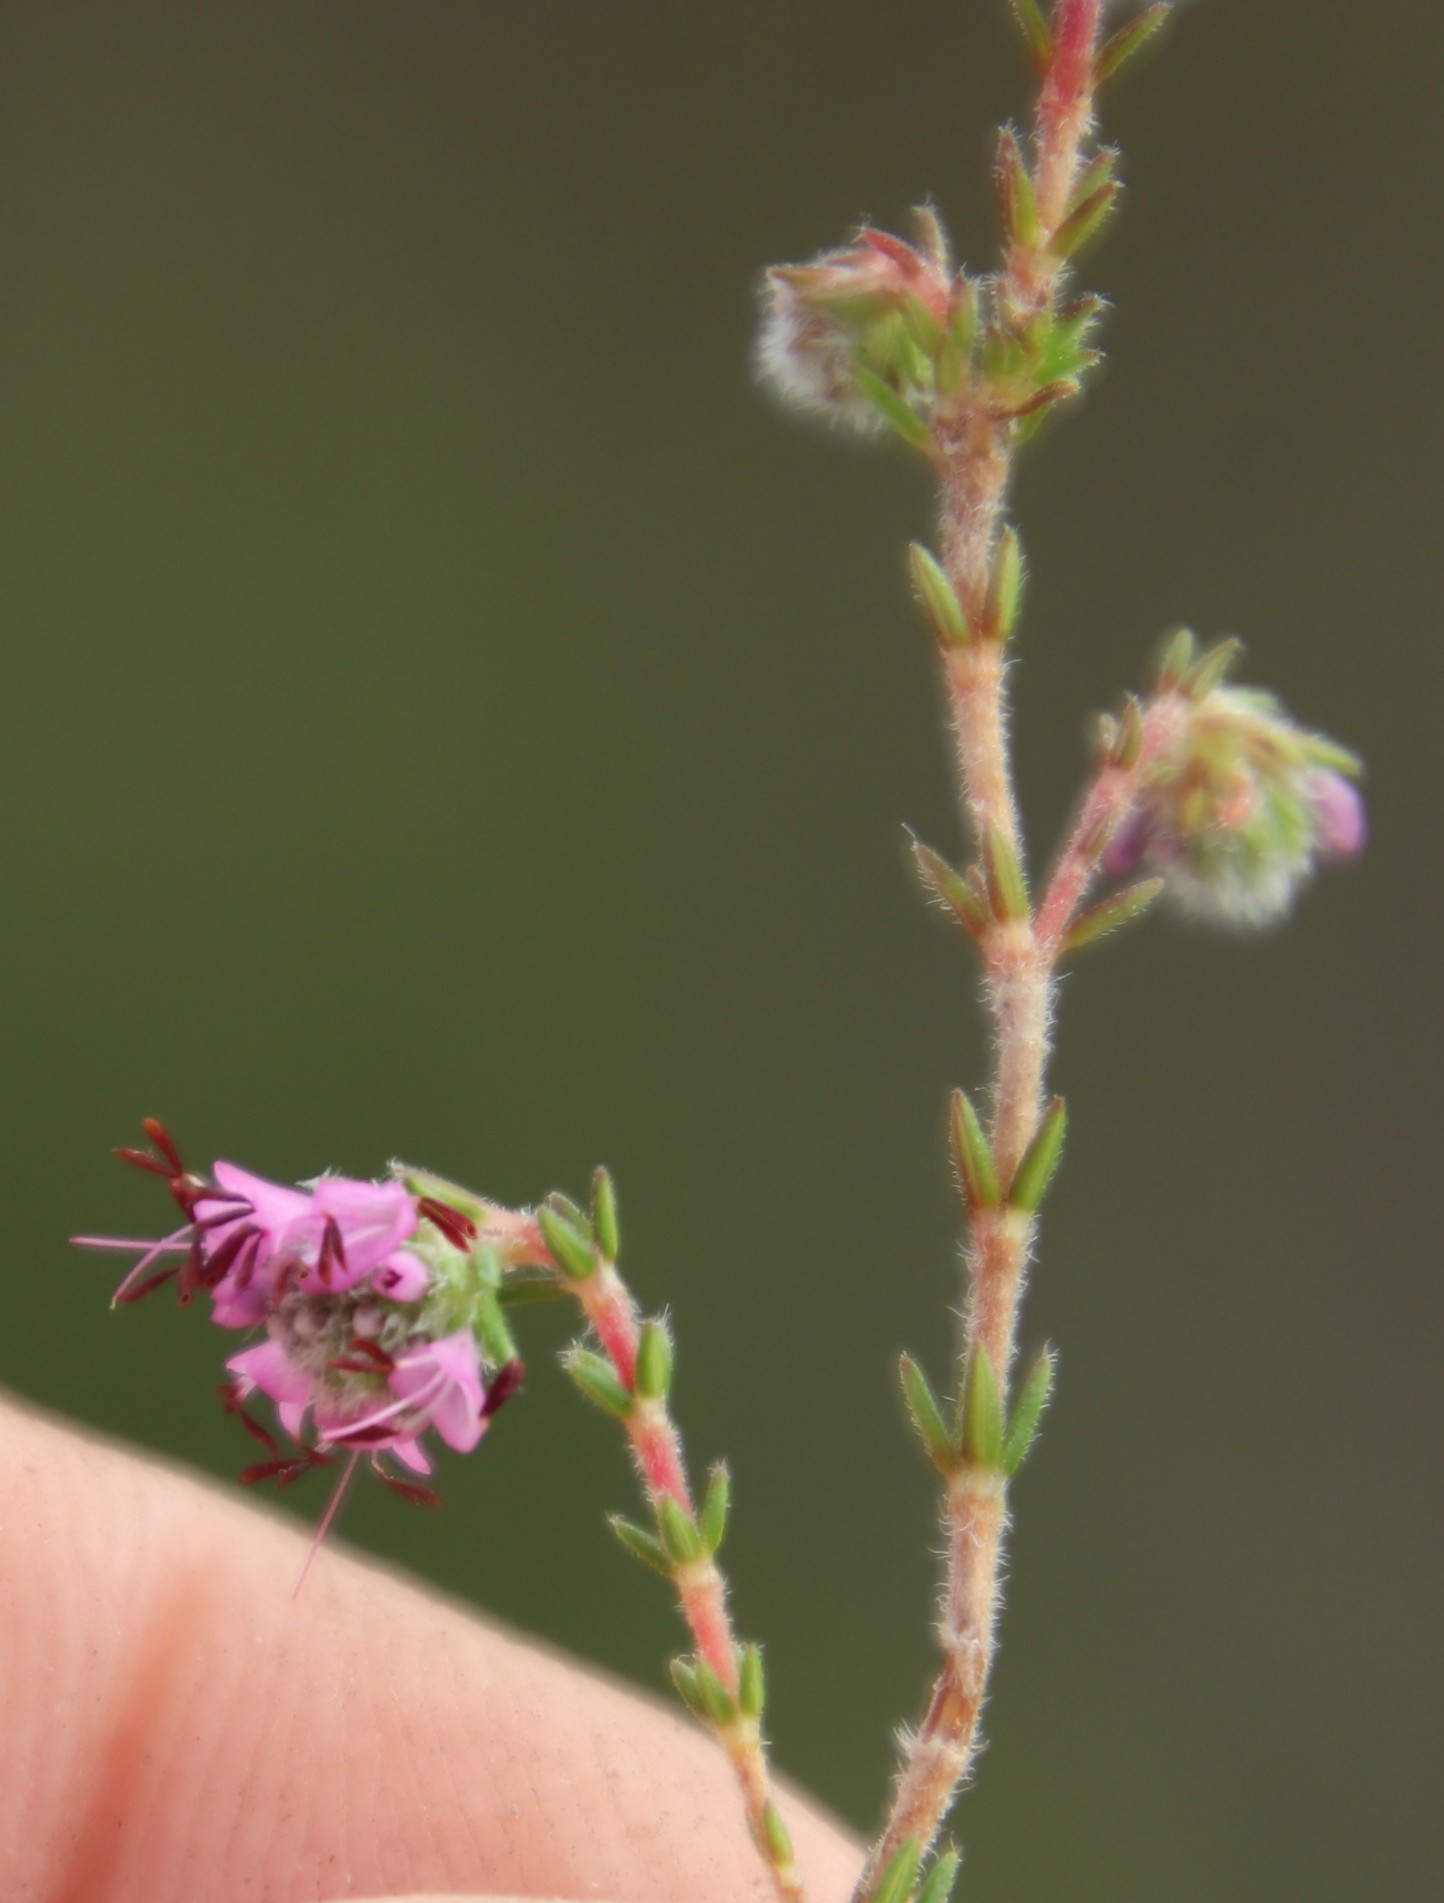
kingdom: Plantae
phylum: Tracheophyta
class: Magnoliopsida
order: Ericales
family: Ericaceae
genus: Erica
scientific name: Erica similis
